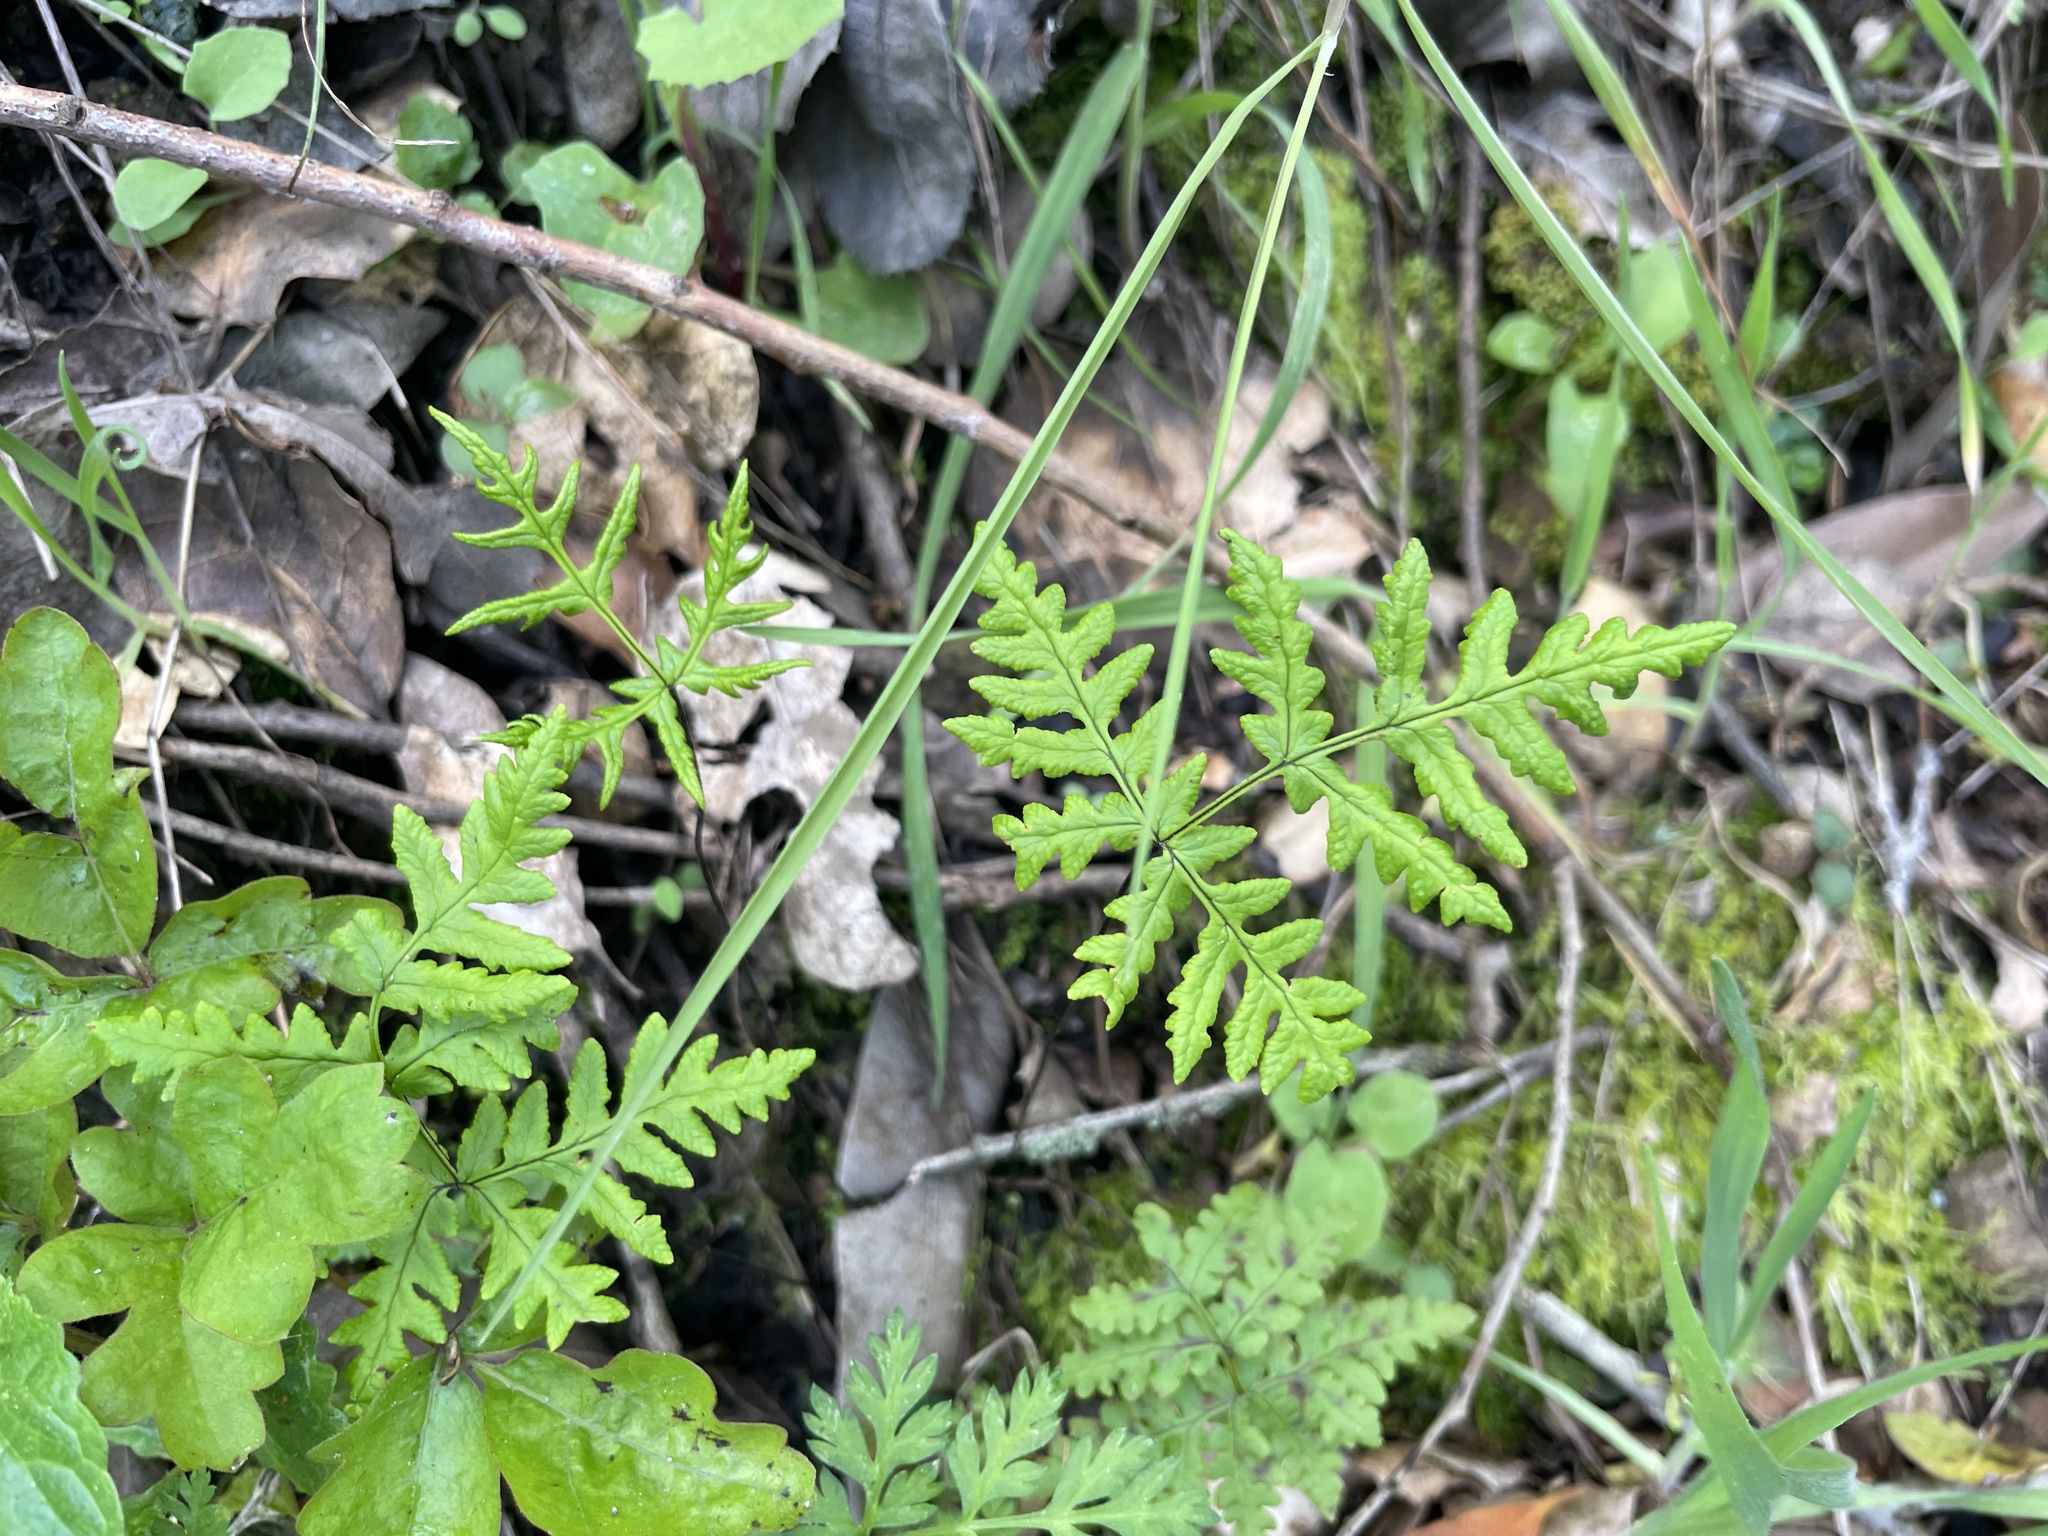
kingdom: Plantae
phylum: Tracheophyta
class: Polypodiopsida
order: Polypodiales
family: Pteridaceae
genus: Pentagramma
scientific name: Pentagramma triangularis
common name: Gold fern
